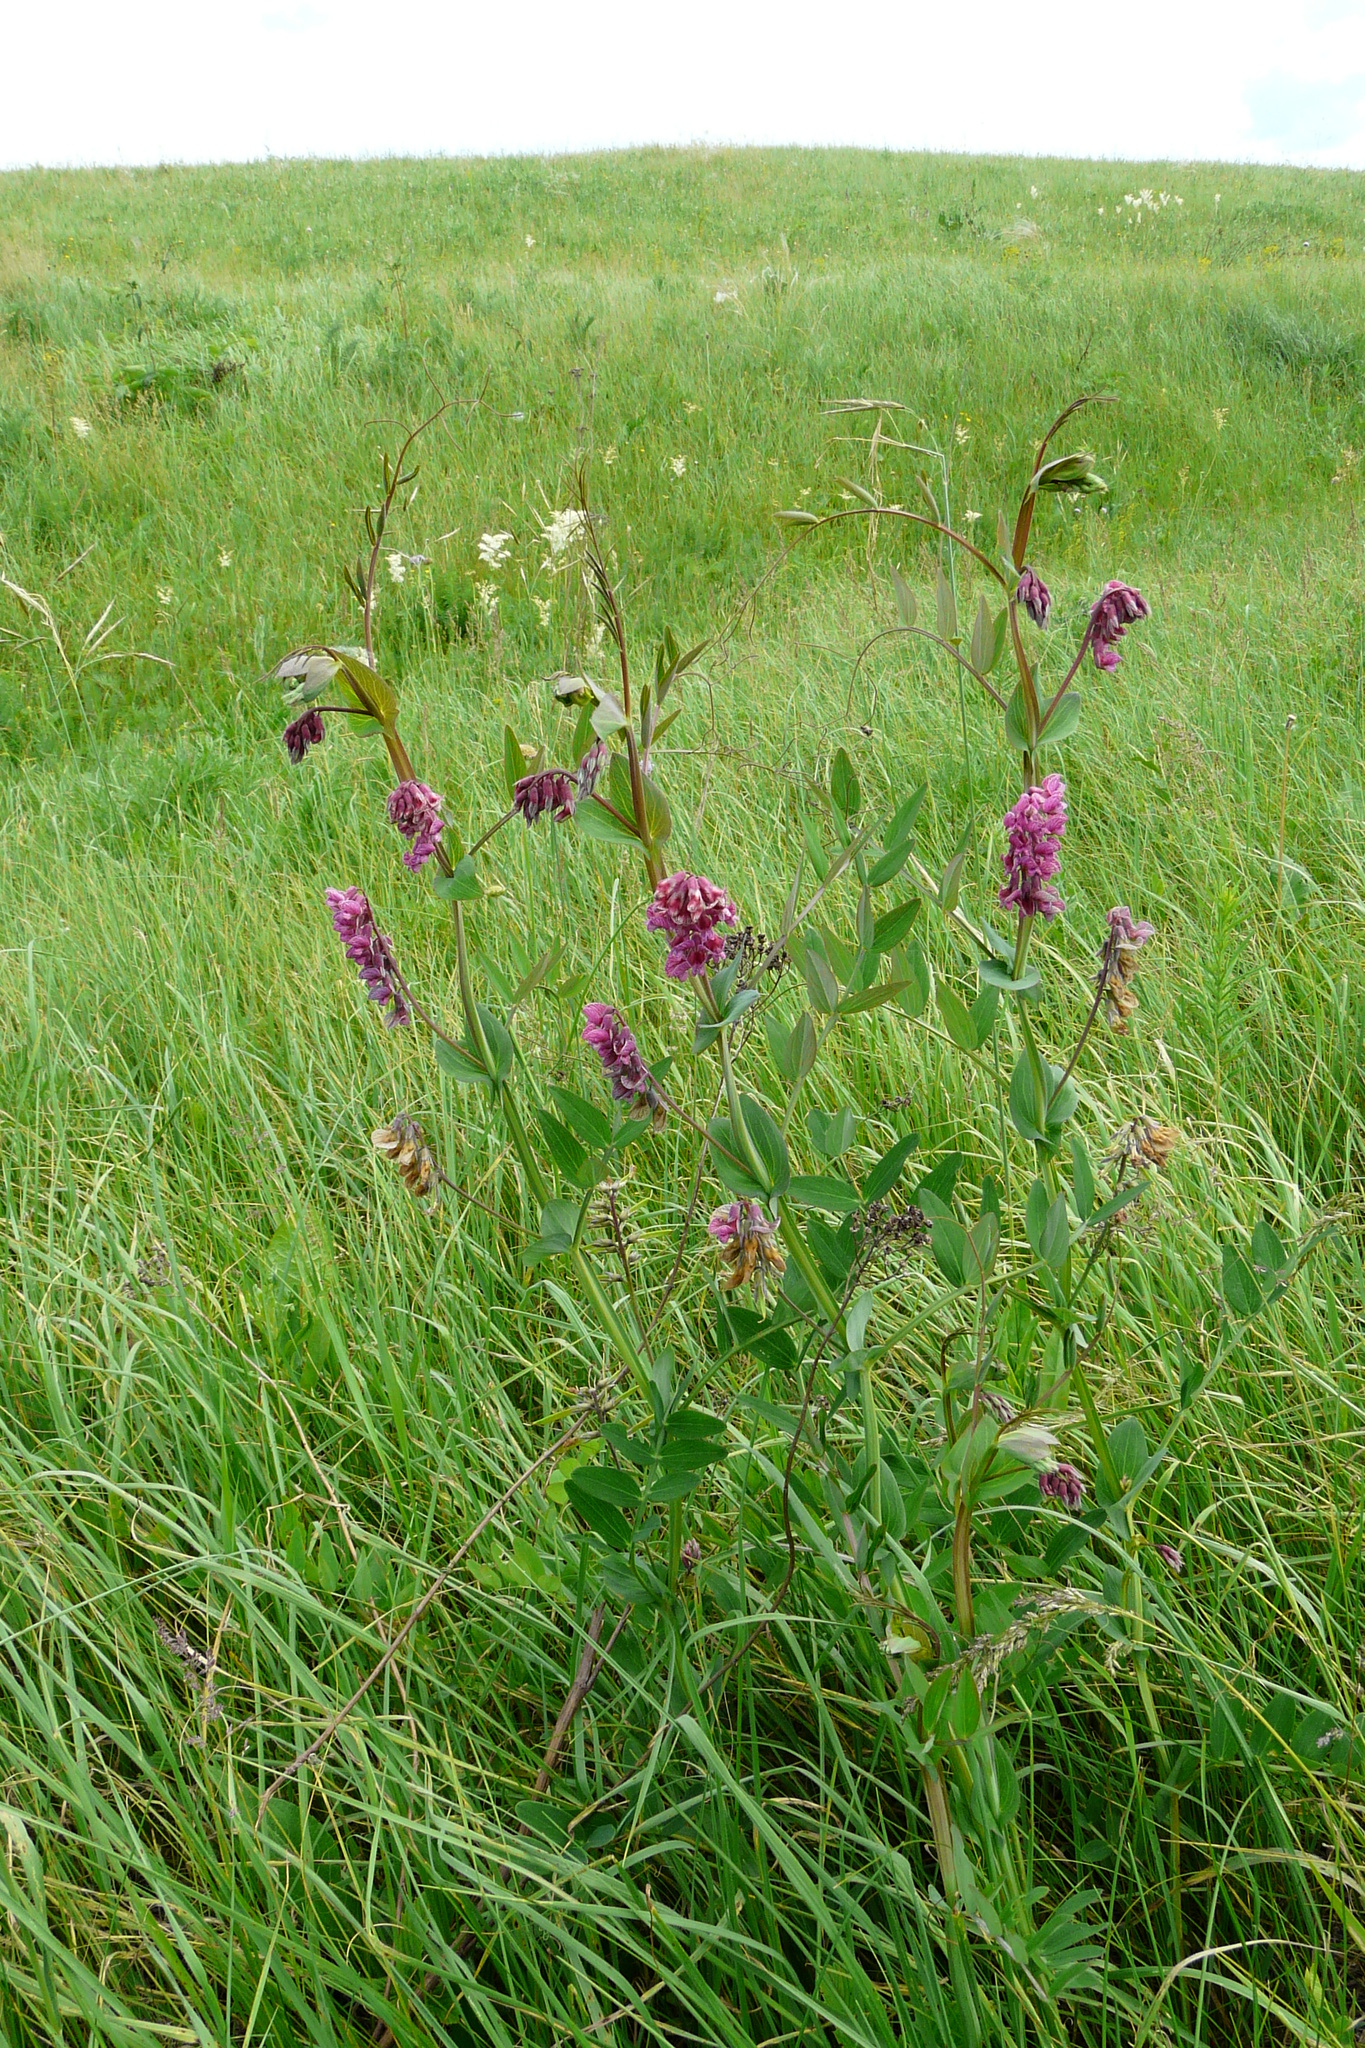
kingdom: Plantae
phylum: Tracheophyta
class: Magnoliopsida
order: Fabales
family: Fabaceae
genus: Lathyrus
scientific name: Lathyrus pisiformis
